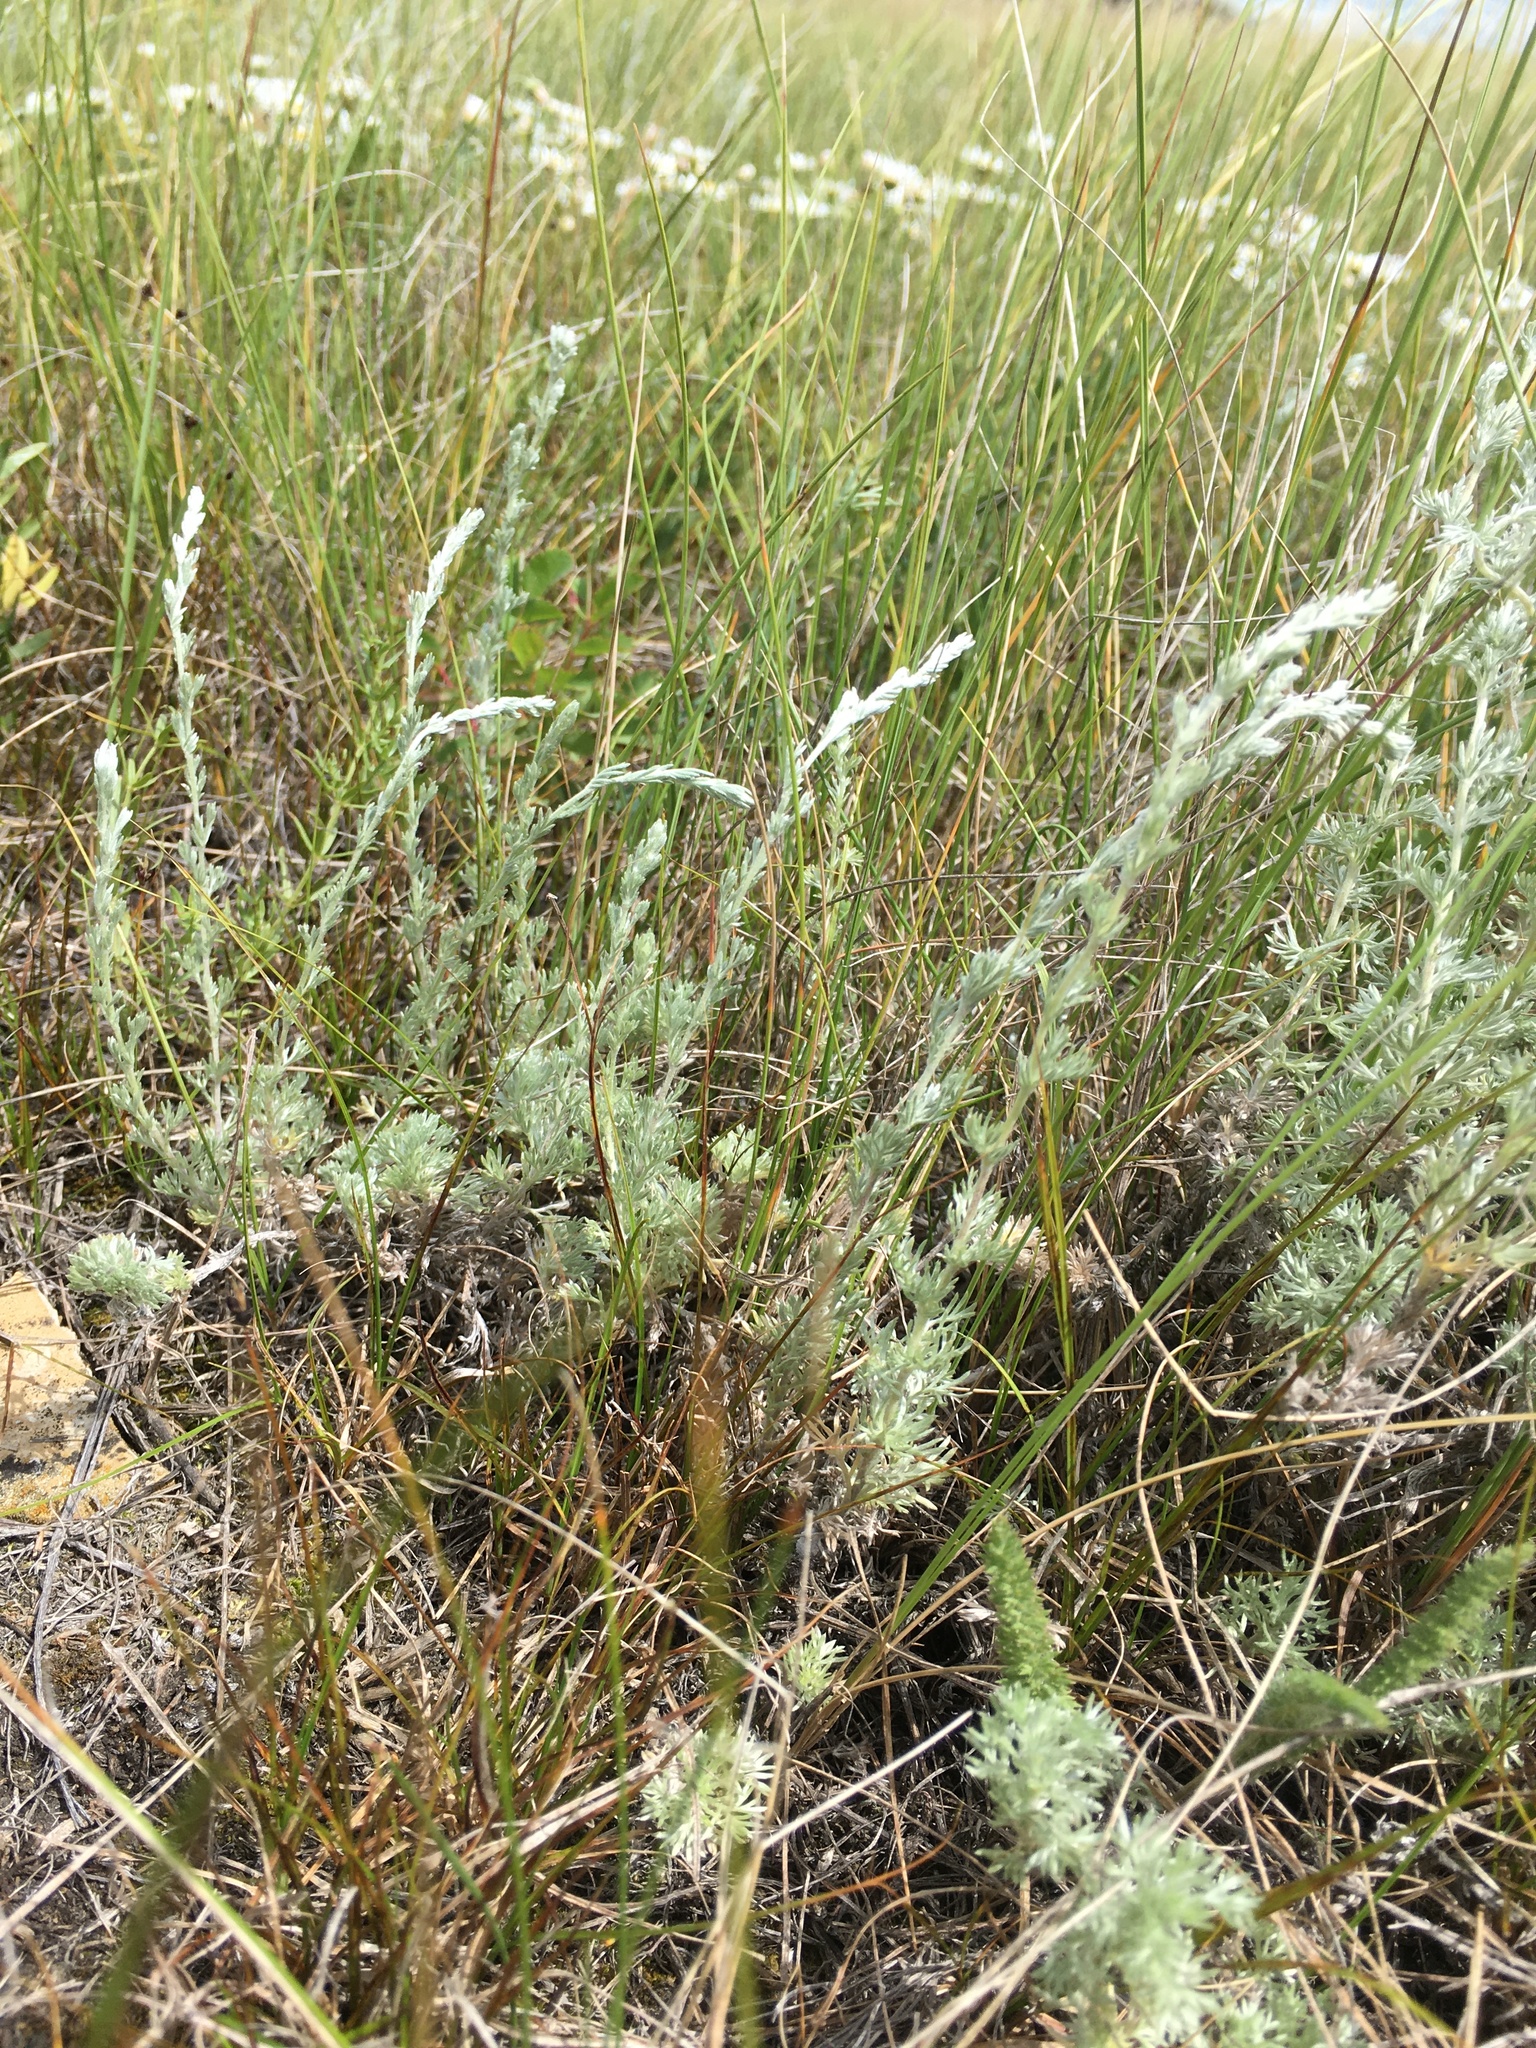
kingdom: Plantae
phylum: Tracheophyta
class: Magnoliopsida
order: Asterales
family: Asteraceae
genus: Artemisia
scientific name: Artemisia frigida
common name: Prairie sagewort
